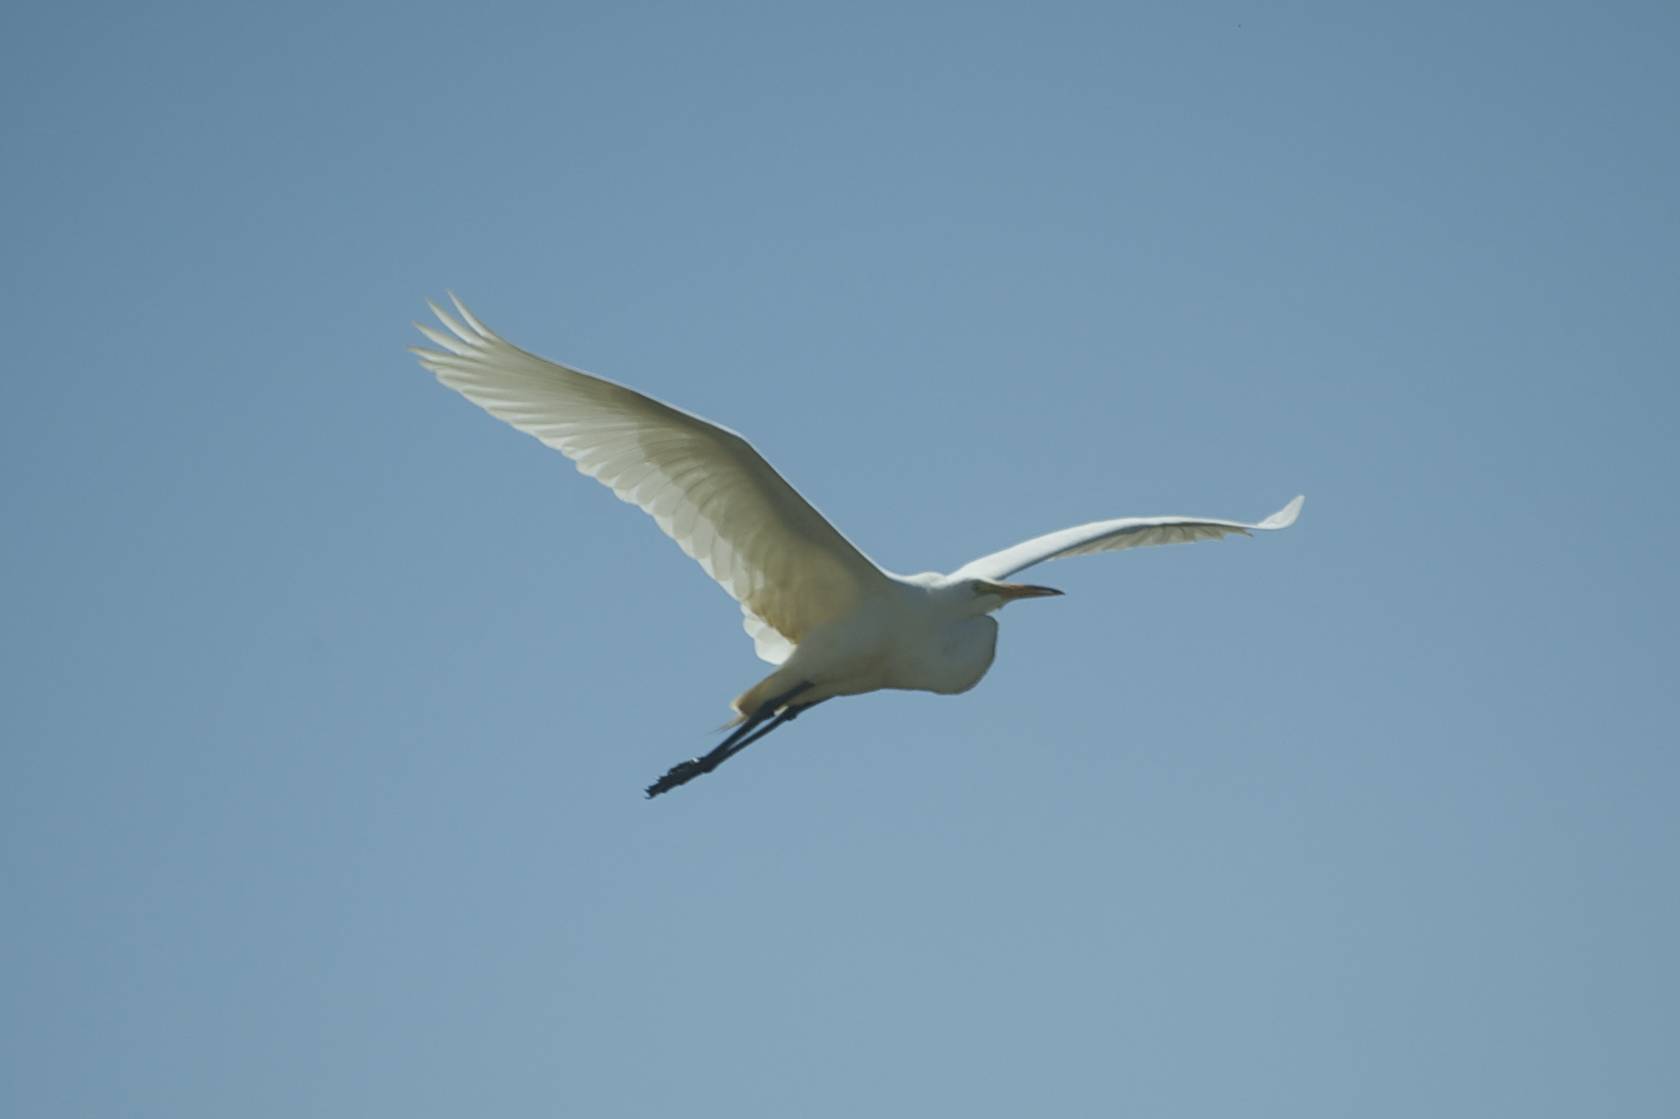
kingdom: Animalia
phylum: Chordata
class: Aves
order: Pelecaniformes
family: Ardeidae
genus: Ardea
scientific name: Ardea alba
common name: Great egret
